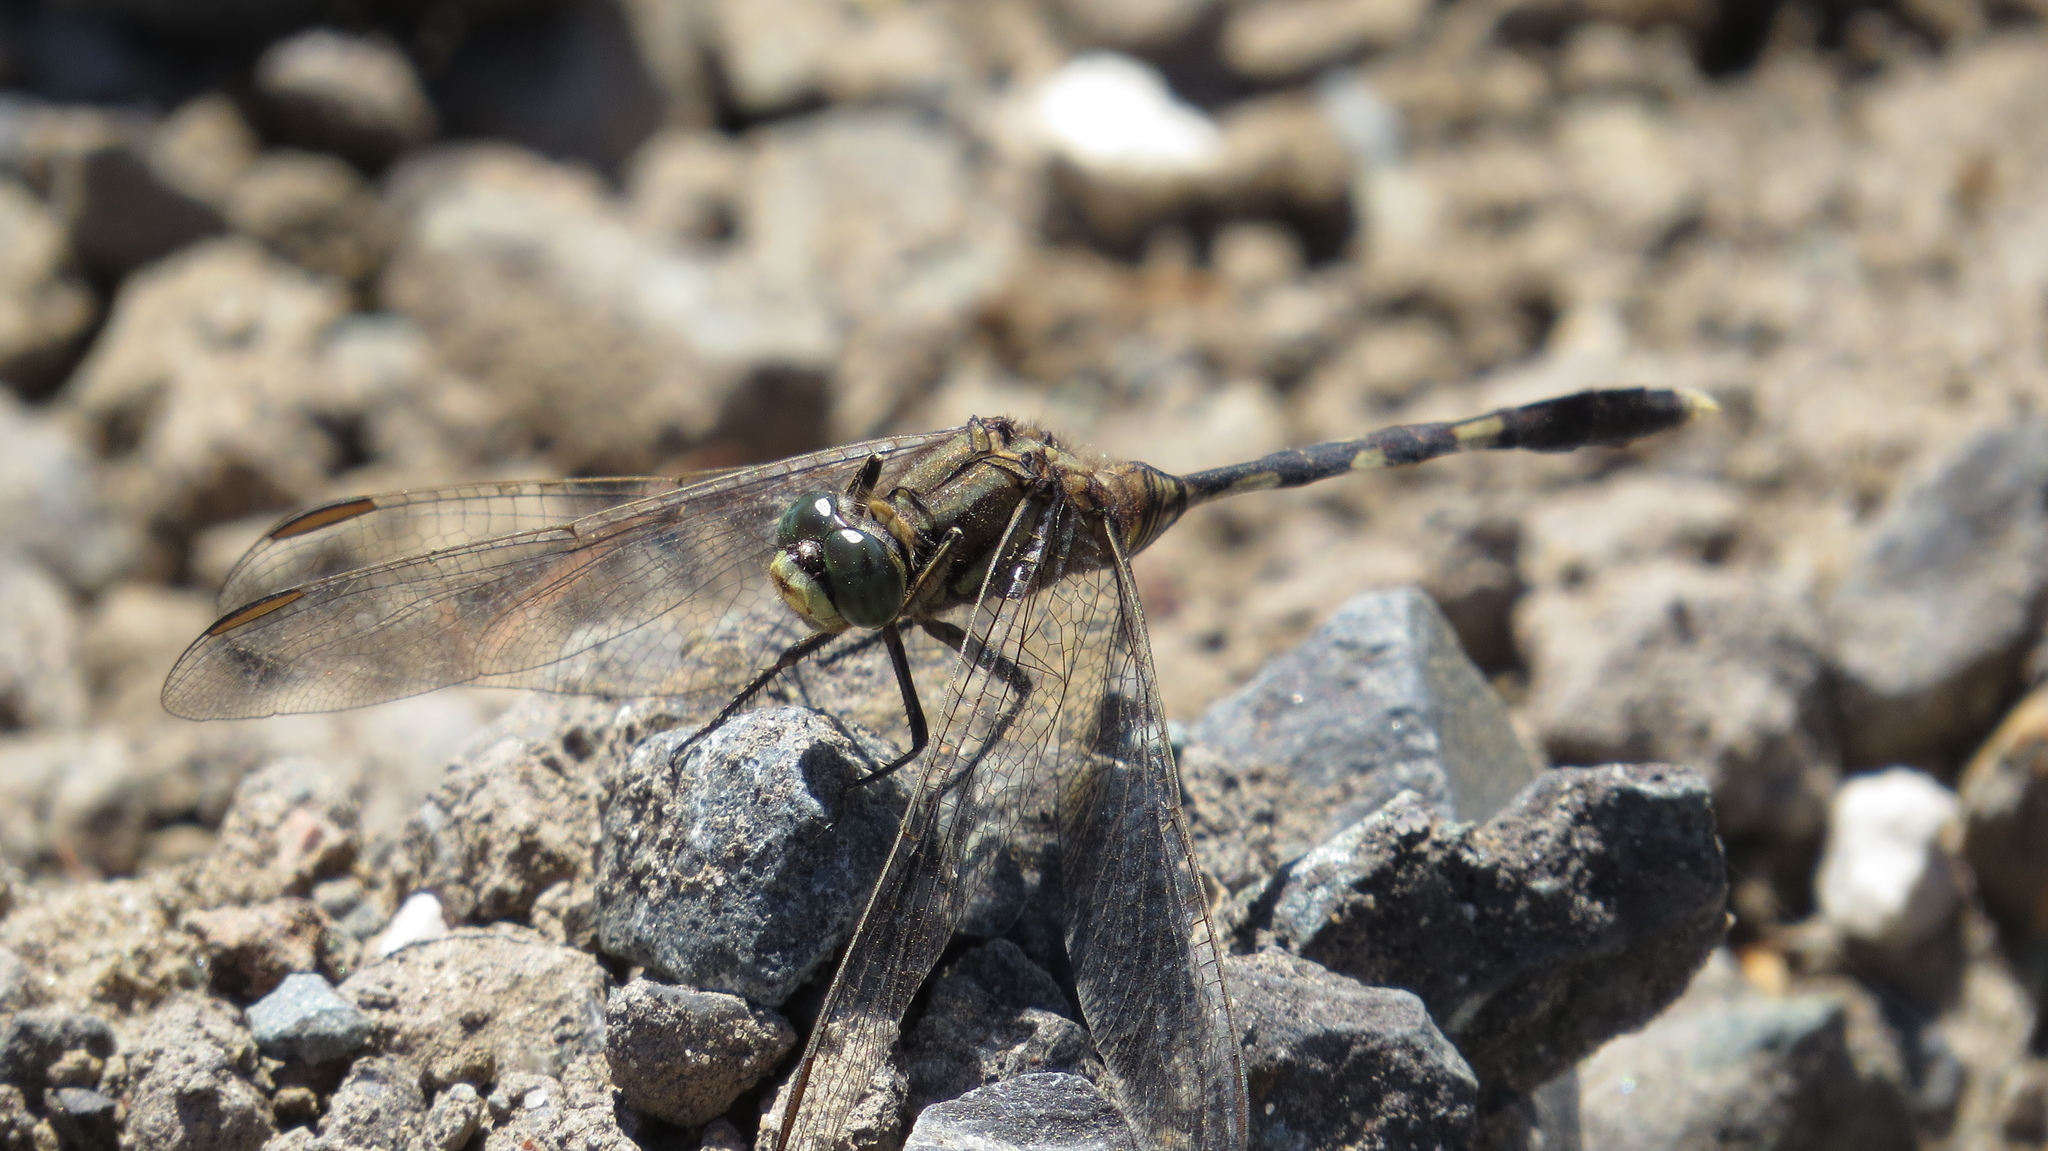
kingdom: Animalia
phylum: Arthropoda
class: Insecta
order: Odonata
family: Libellulidae
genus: Orthetrum
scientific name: Orthetrum sabina
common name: Slender skimmer
